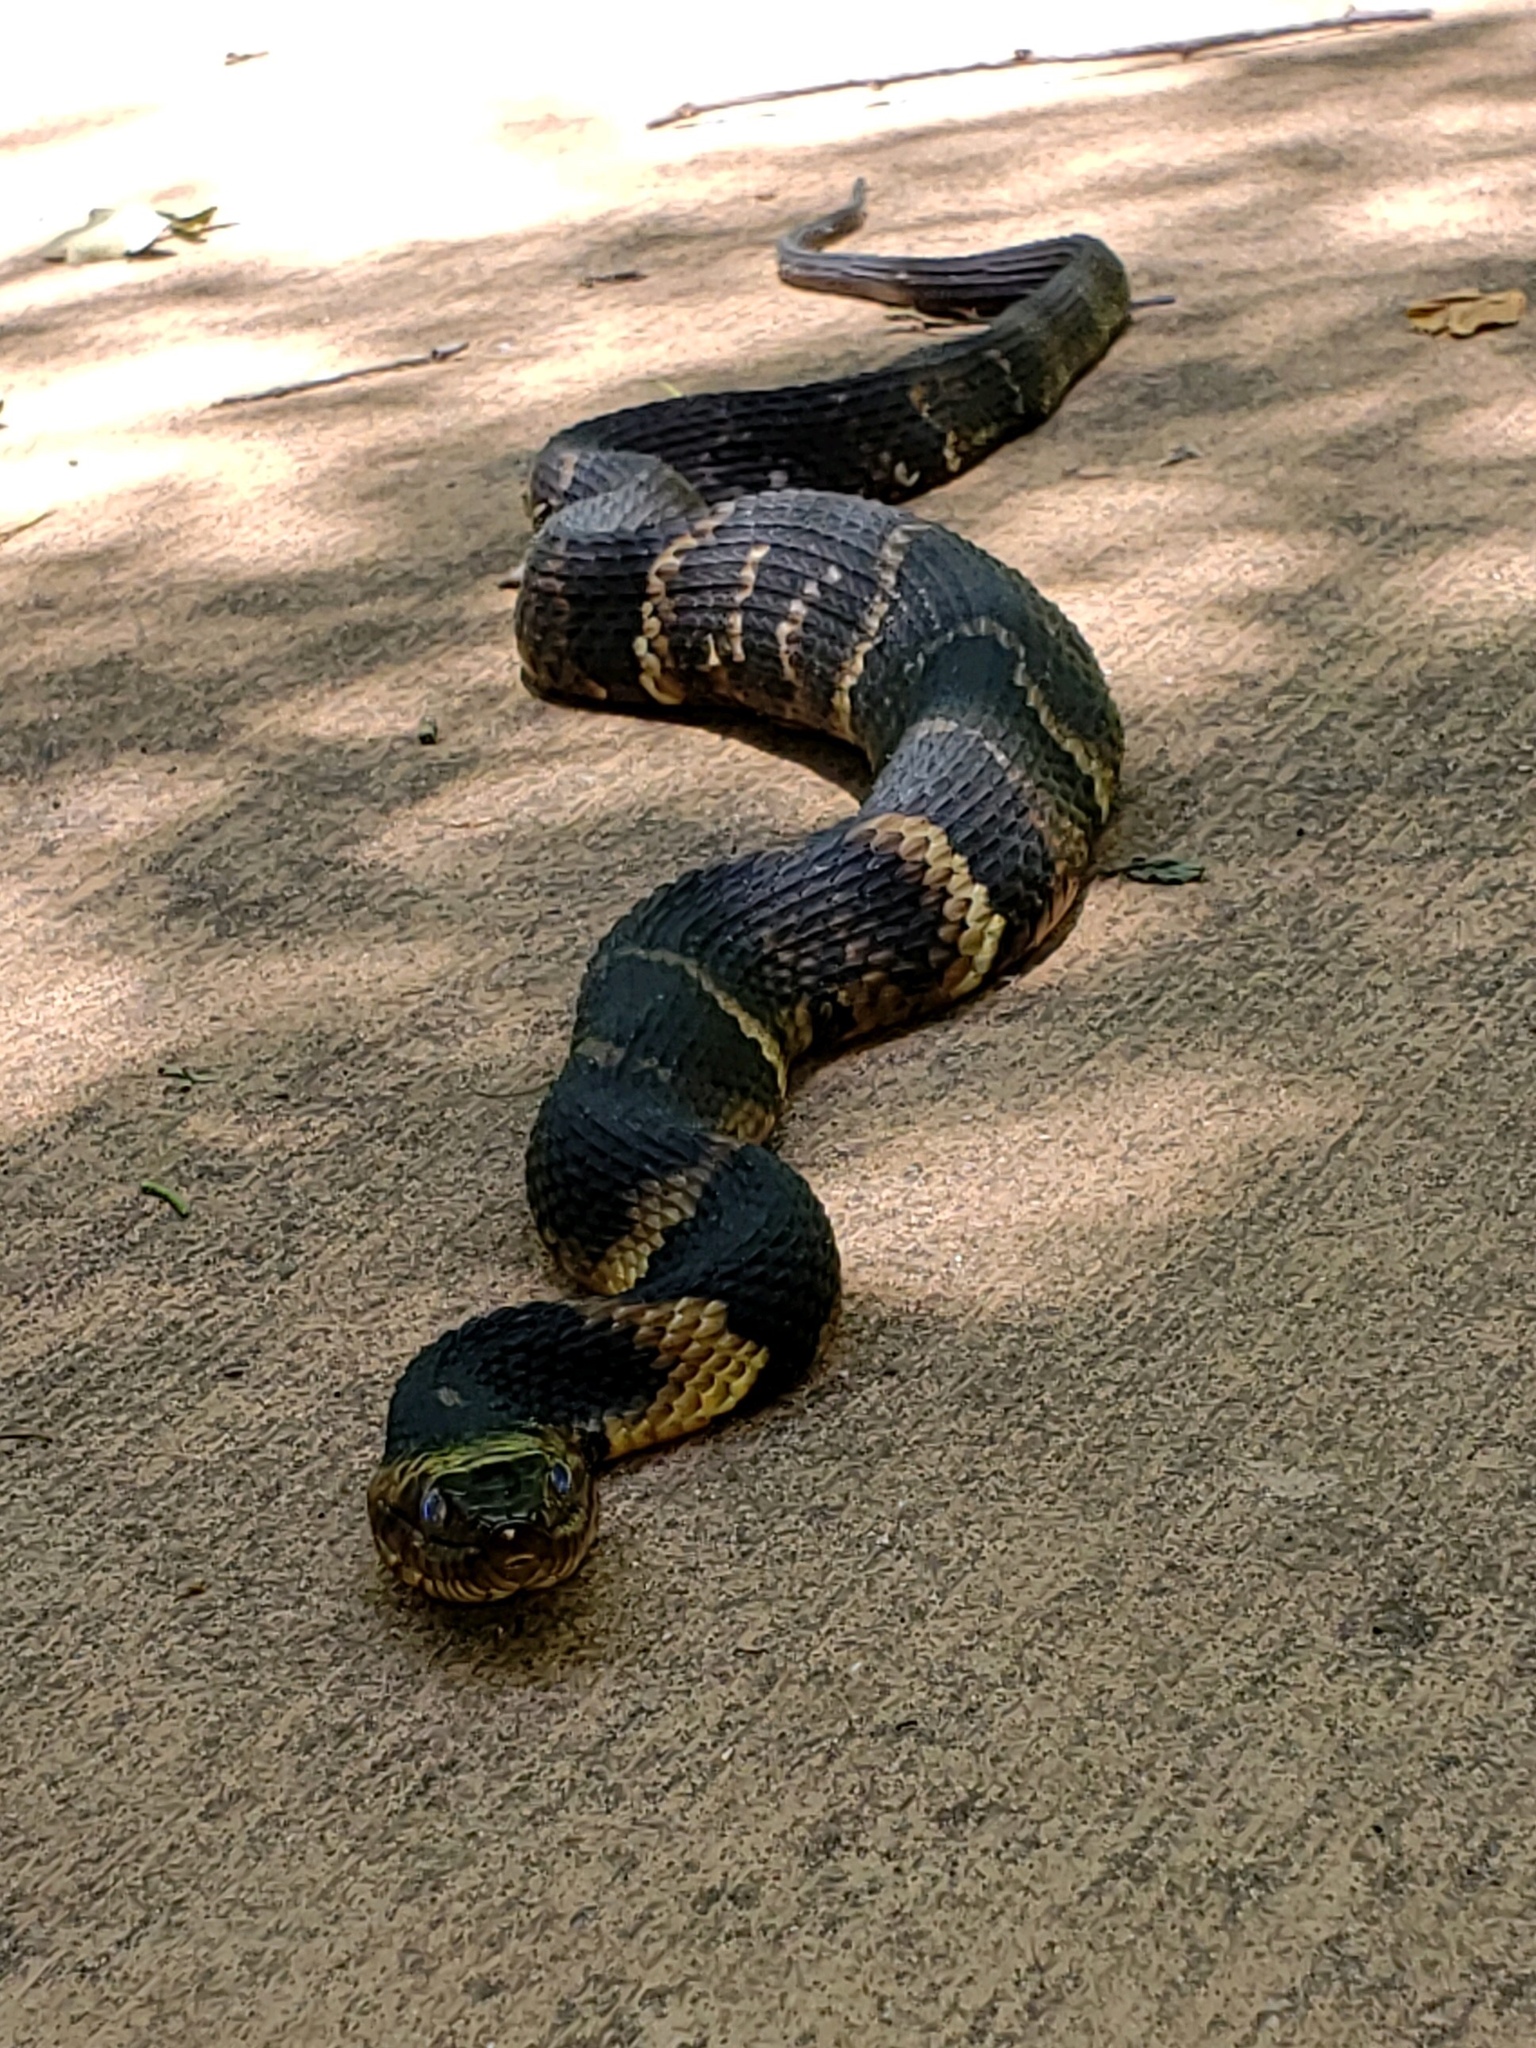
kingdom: Animalia
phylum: Chordata
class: Squamata
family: Colubridae
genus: Nerodia
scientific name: Nerodia fasciata
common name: Southern water snake
